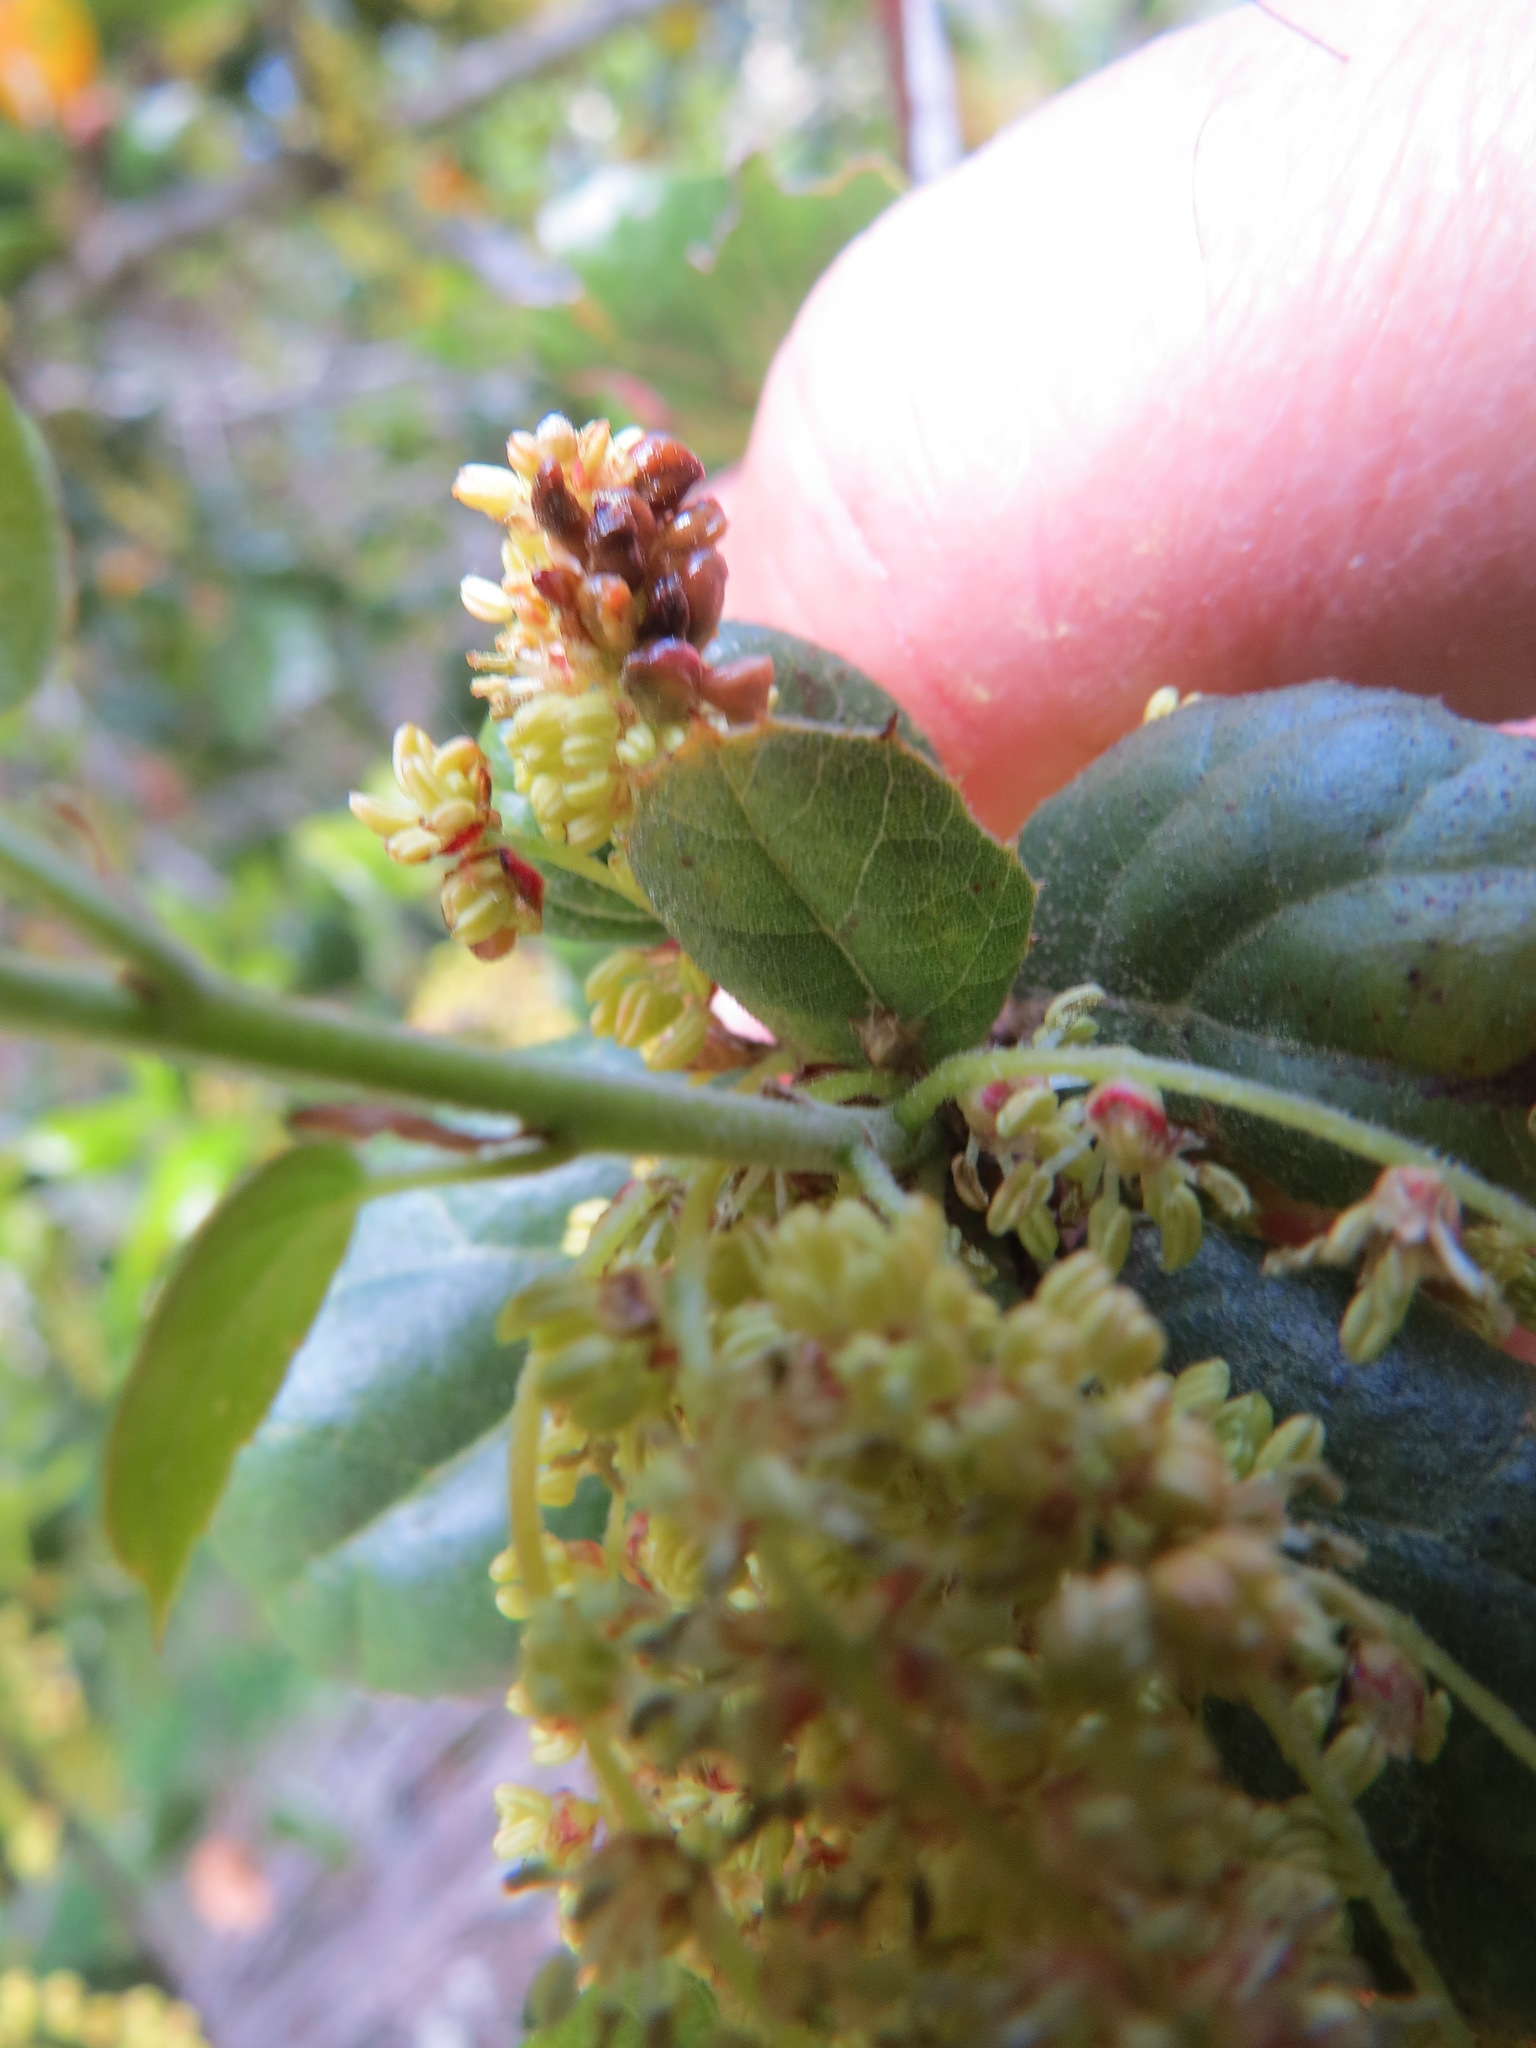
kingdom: Animalia
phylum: Arthropoda
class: Insecta
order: Hymenoptera
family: Cynipidae
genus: Dryocosmus
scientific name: Dryocosmus
